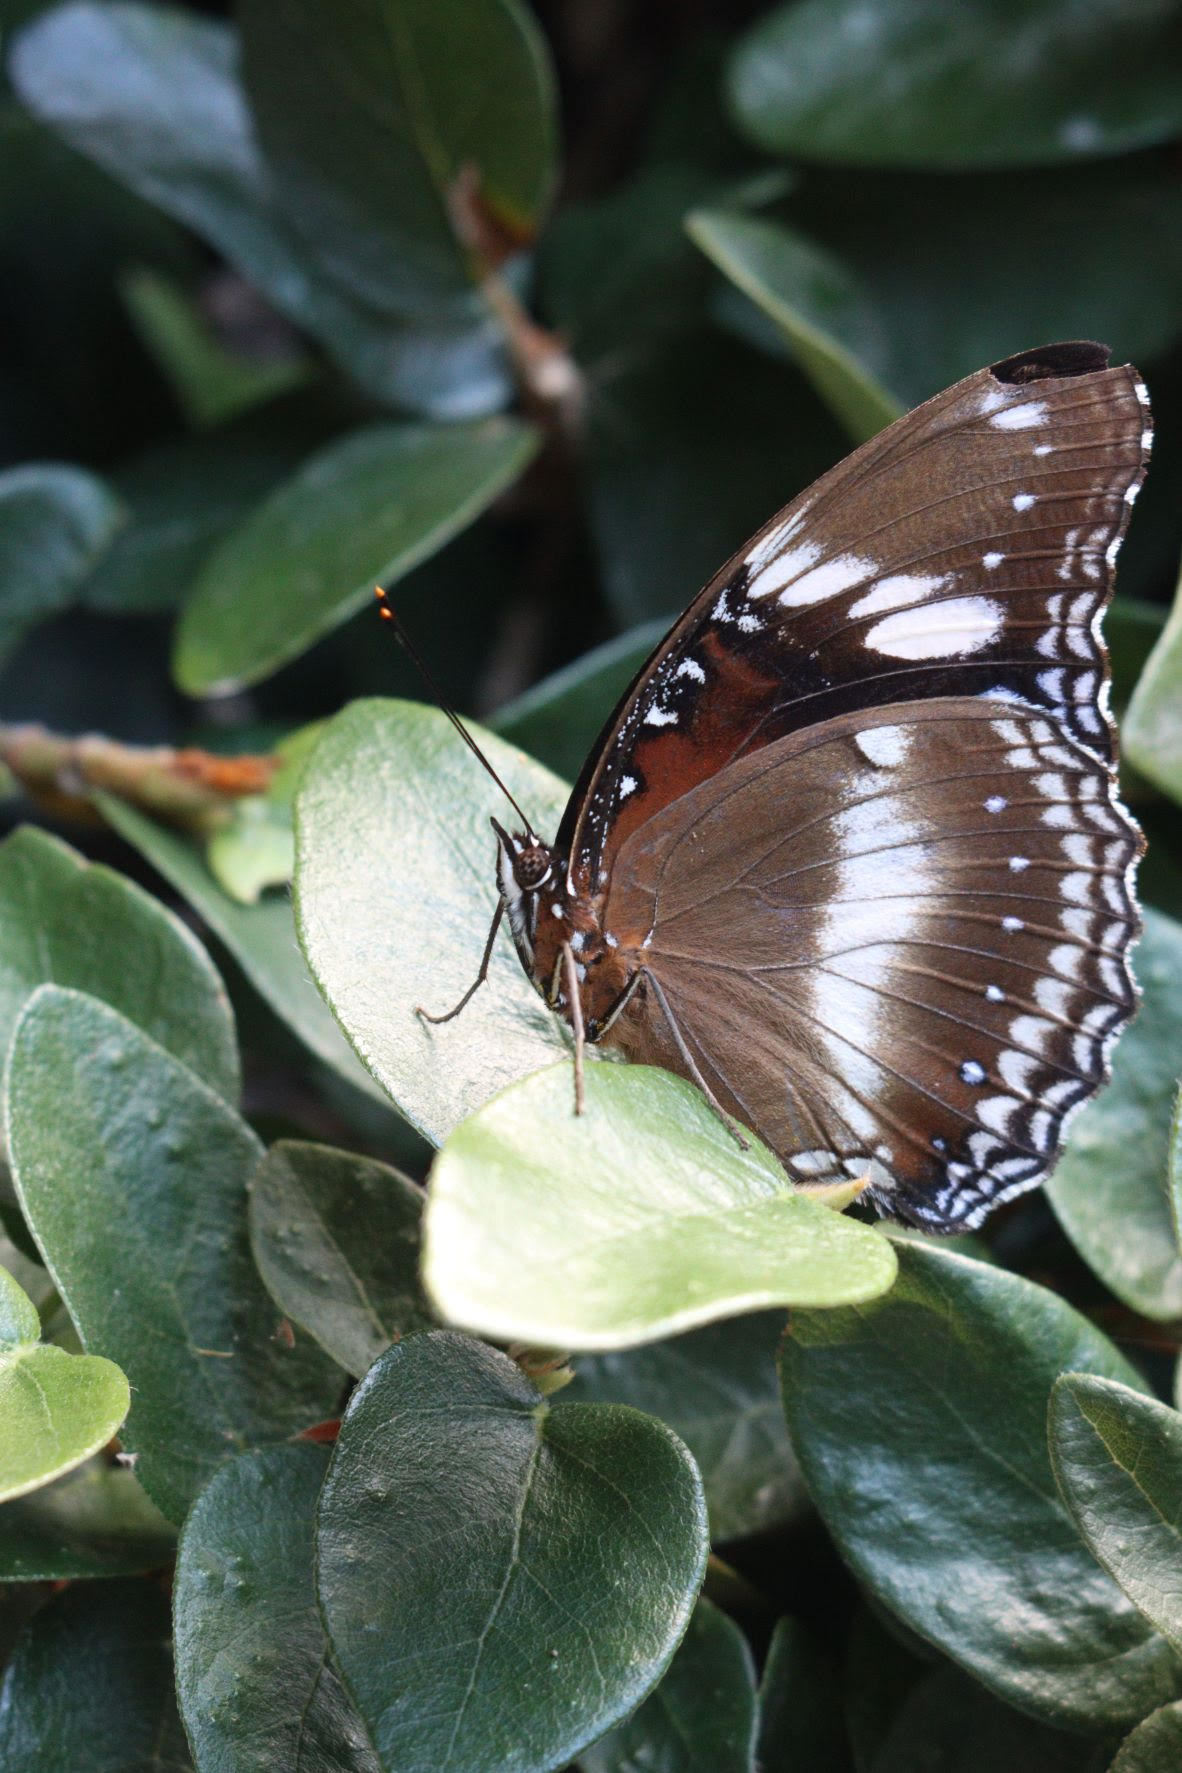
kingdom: Animalia
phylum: Arthropoda
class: Insecta
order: Lepidoptera
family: Nymphalidae
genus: Hypolimnas
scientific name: Hypolimnas bolina
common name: Great eggfly
